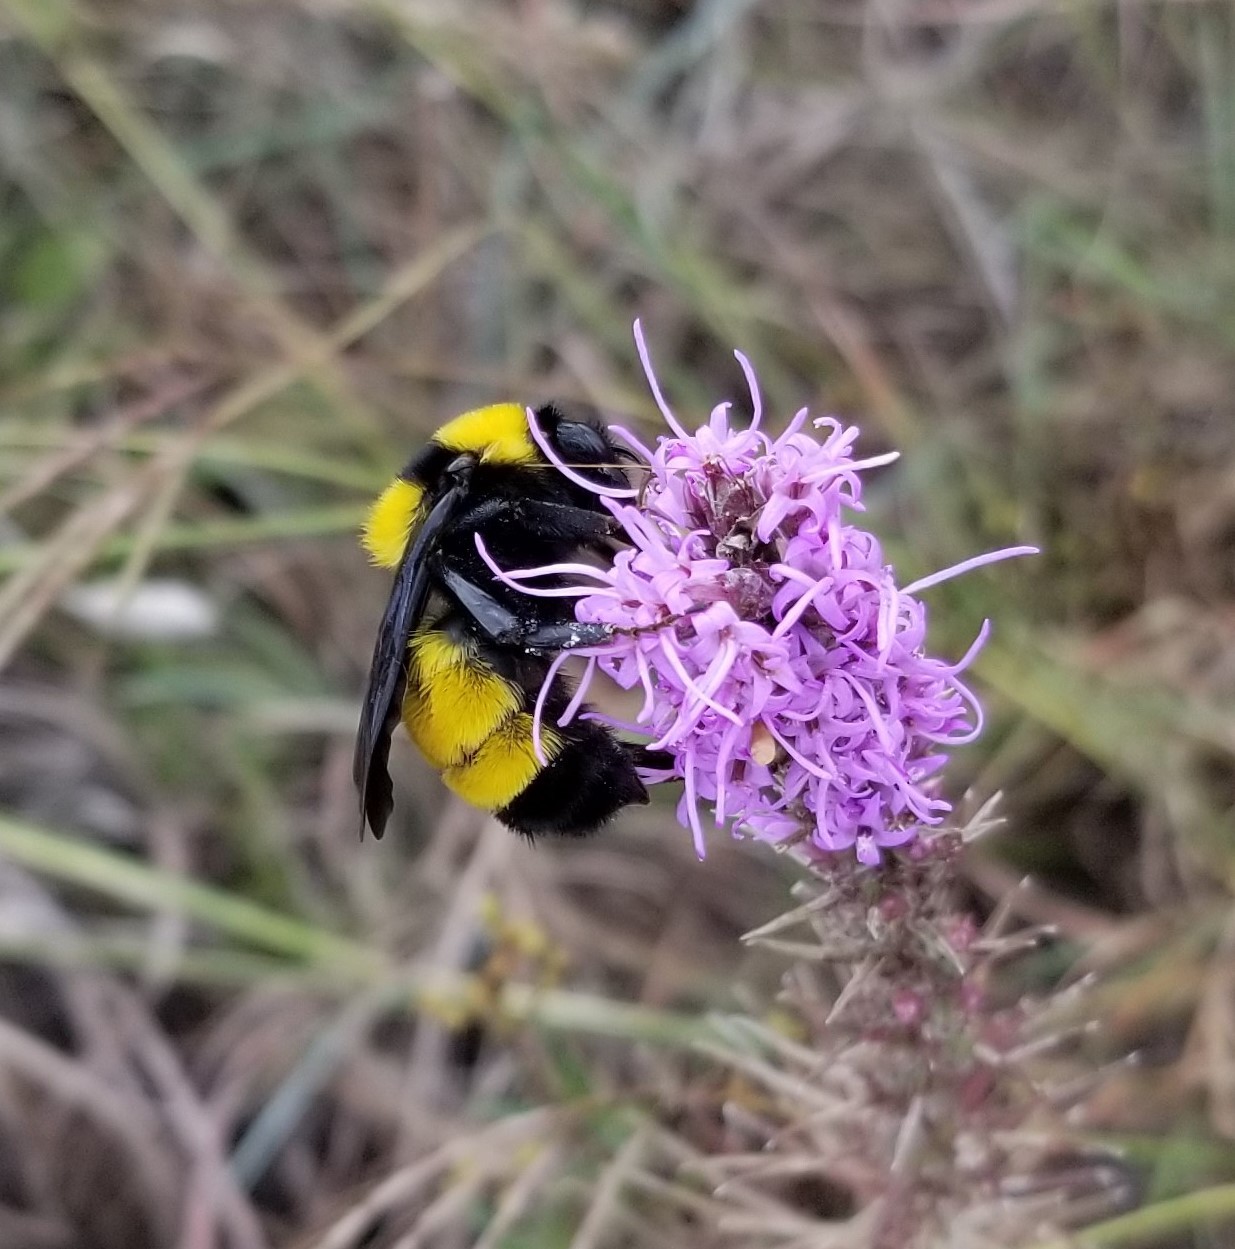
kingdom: Animalia
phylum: Arthropoda
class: Insecta
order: Hymenoptera
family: Apidae
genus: Bombus
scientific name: Bombus sonorus
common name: Sonoran bumble bee
